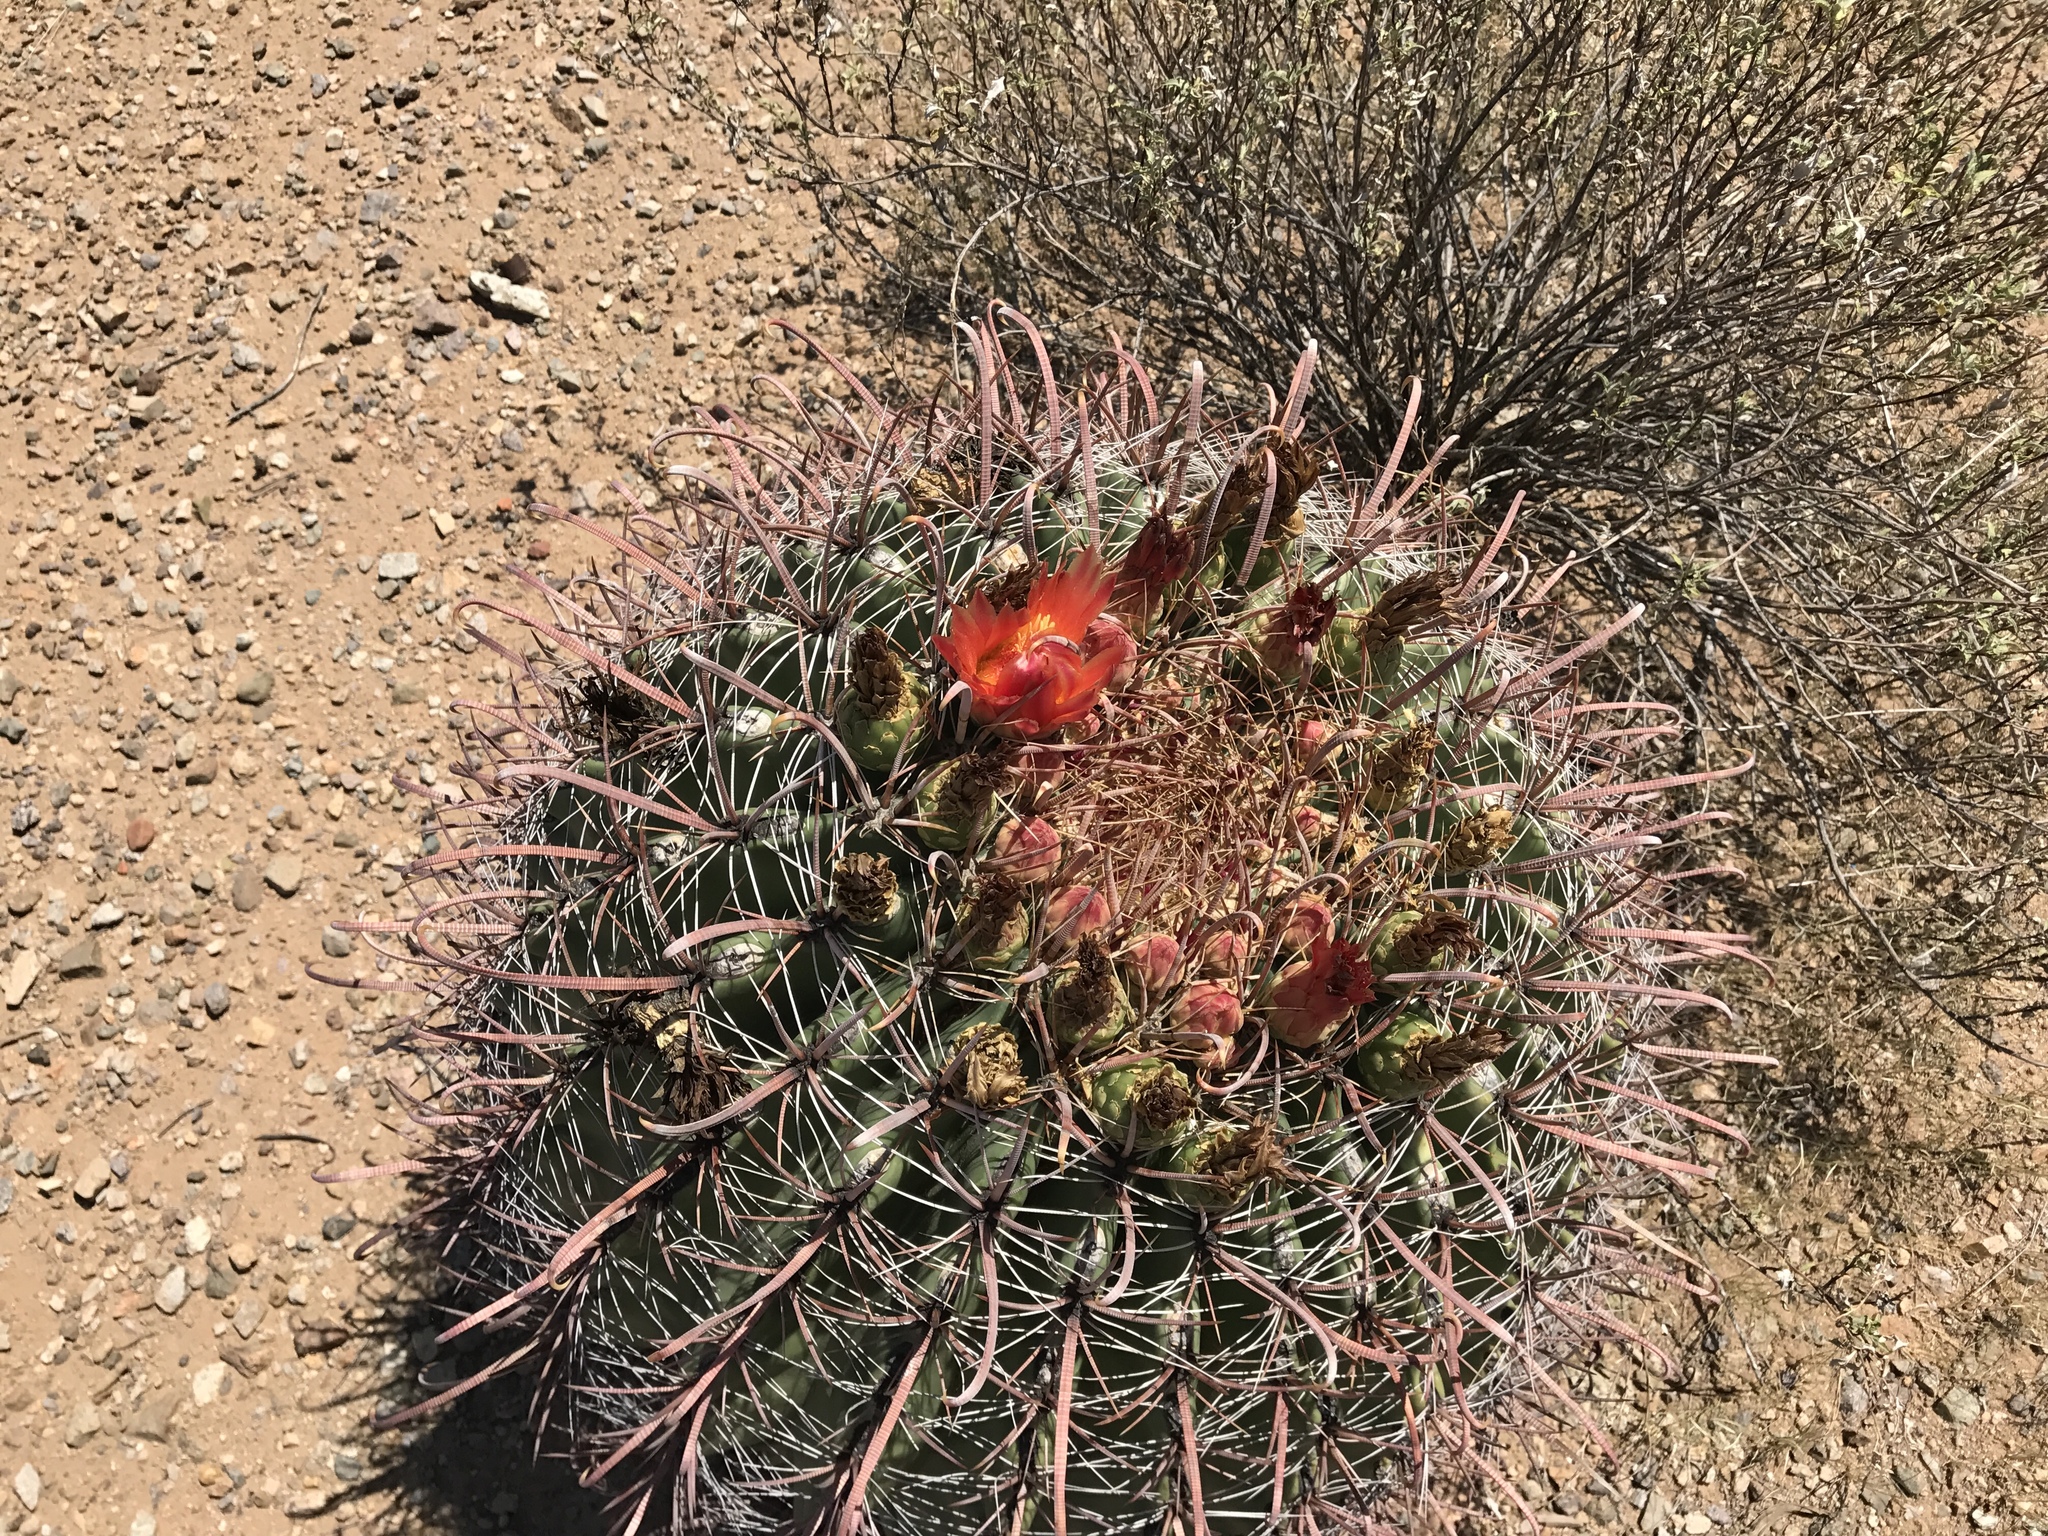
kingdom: Plantae
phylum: Tracheophyta
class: Magnoliopsida
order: Caryophyllales
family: Cactaceae
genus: Ferocactus
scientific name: Ferocactus wislizeni
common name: Candy barrel cactus
